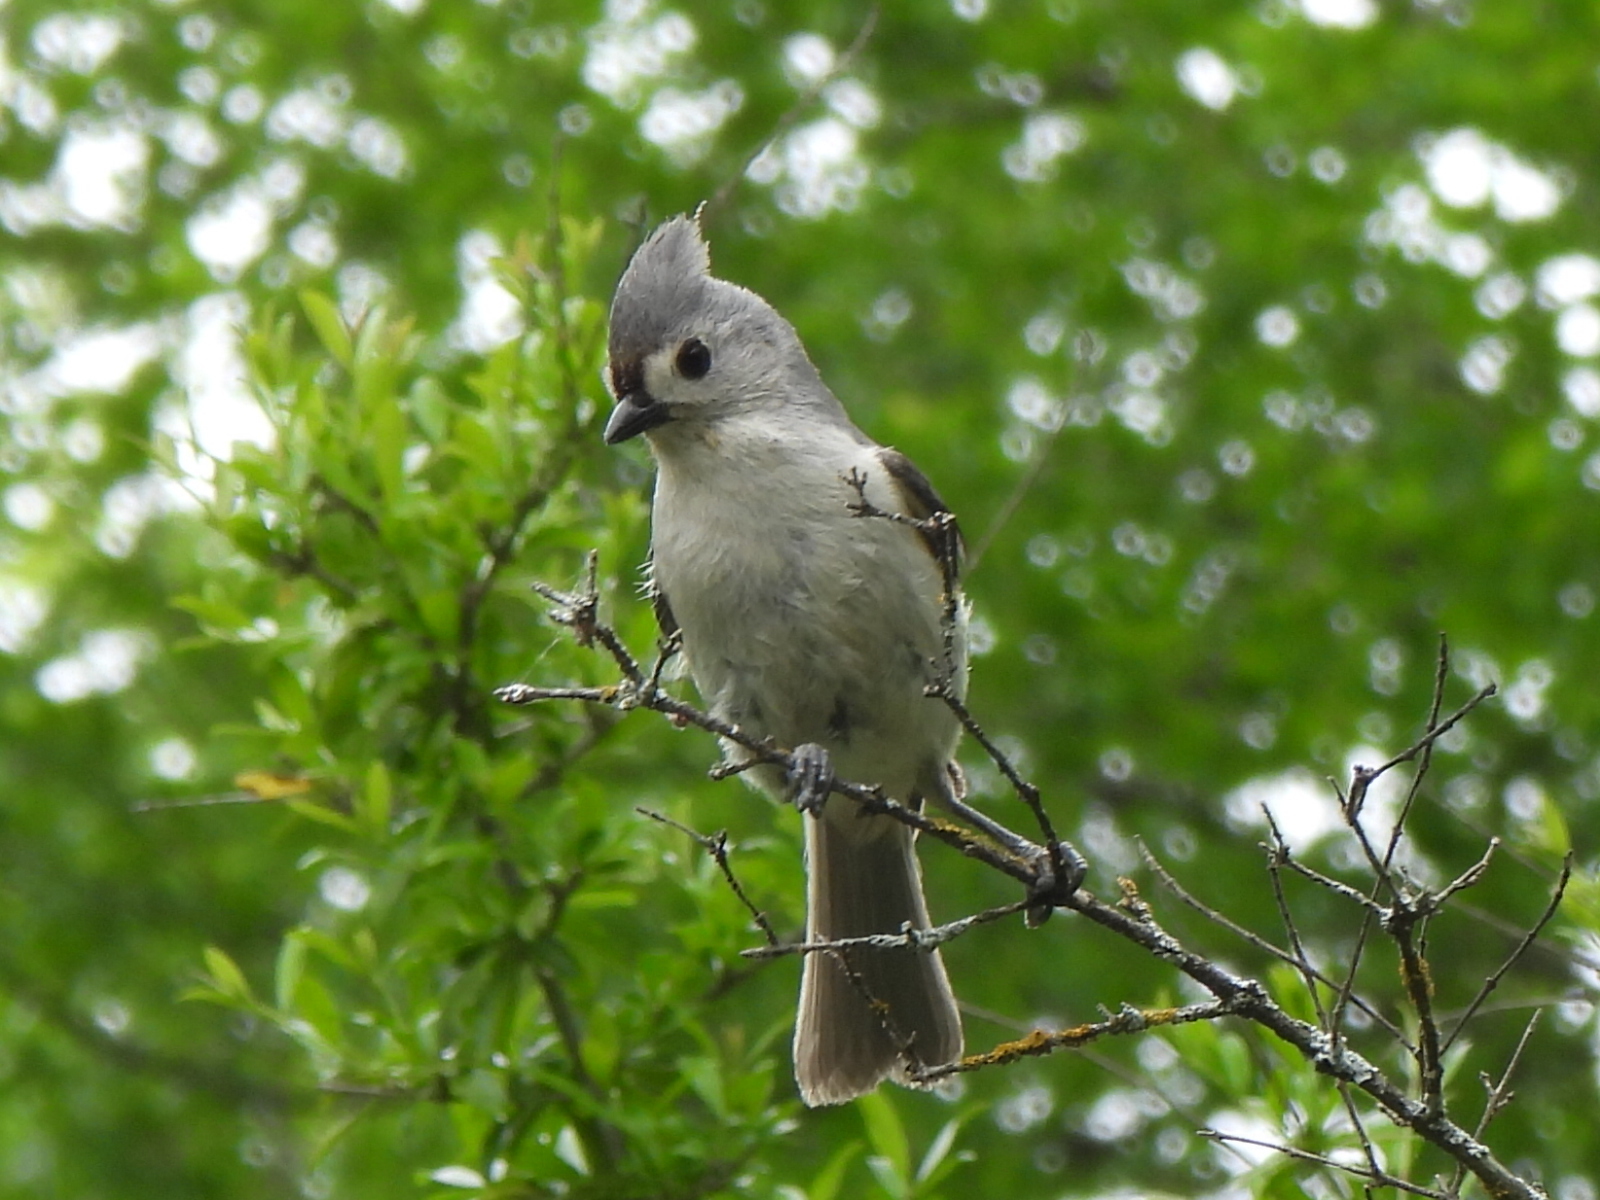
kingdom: Animalia
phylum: Chordata
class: Aves
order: Passeriformes
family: Paridae
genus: Baeolophus
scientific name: Baeolophus bicolor
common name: Tufted titmouse
